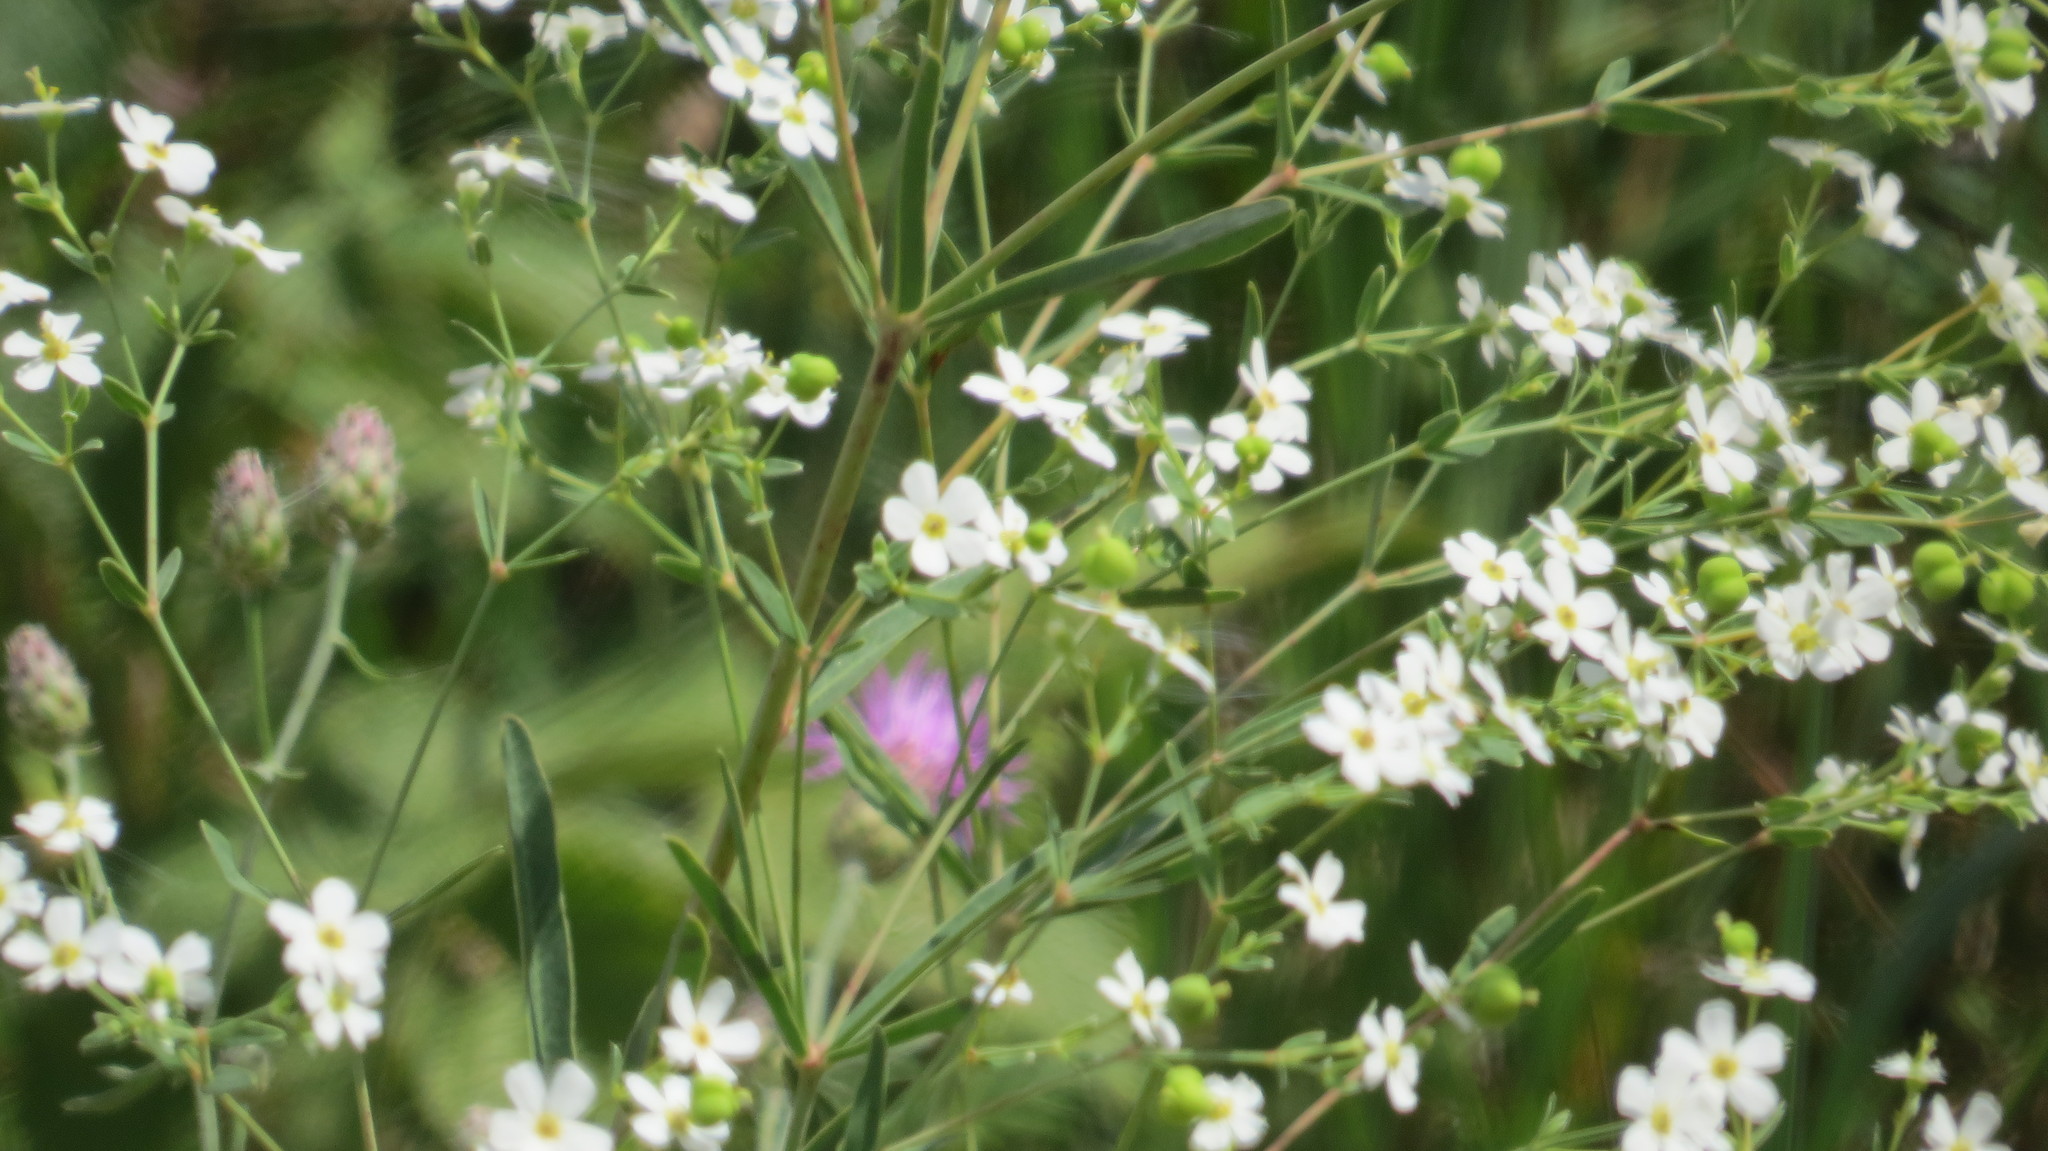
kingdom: Plantae
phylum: Tracheophyta
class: Magnoliopsida
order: Malpighiales
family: Euphorbiaceae
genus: Euphorbia
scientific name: Euphorbia corollata
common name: Flowering spurge
